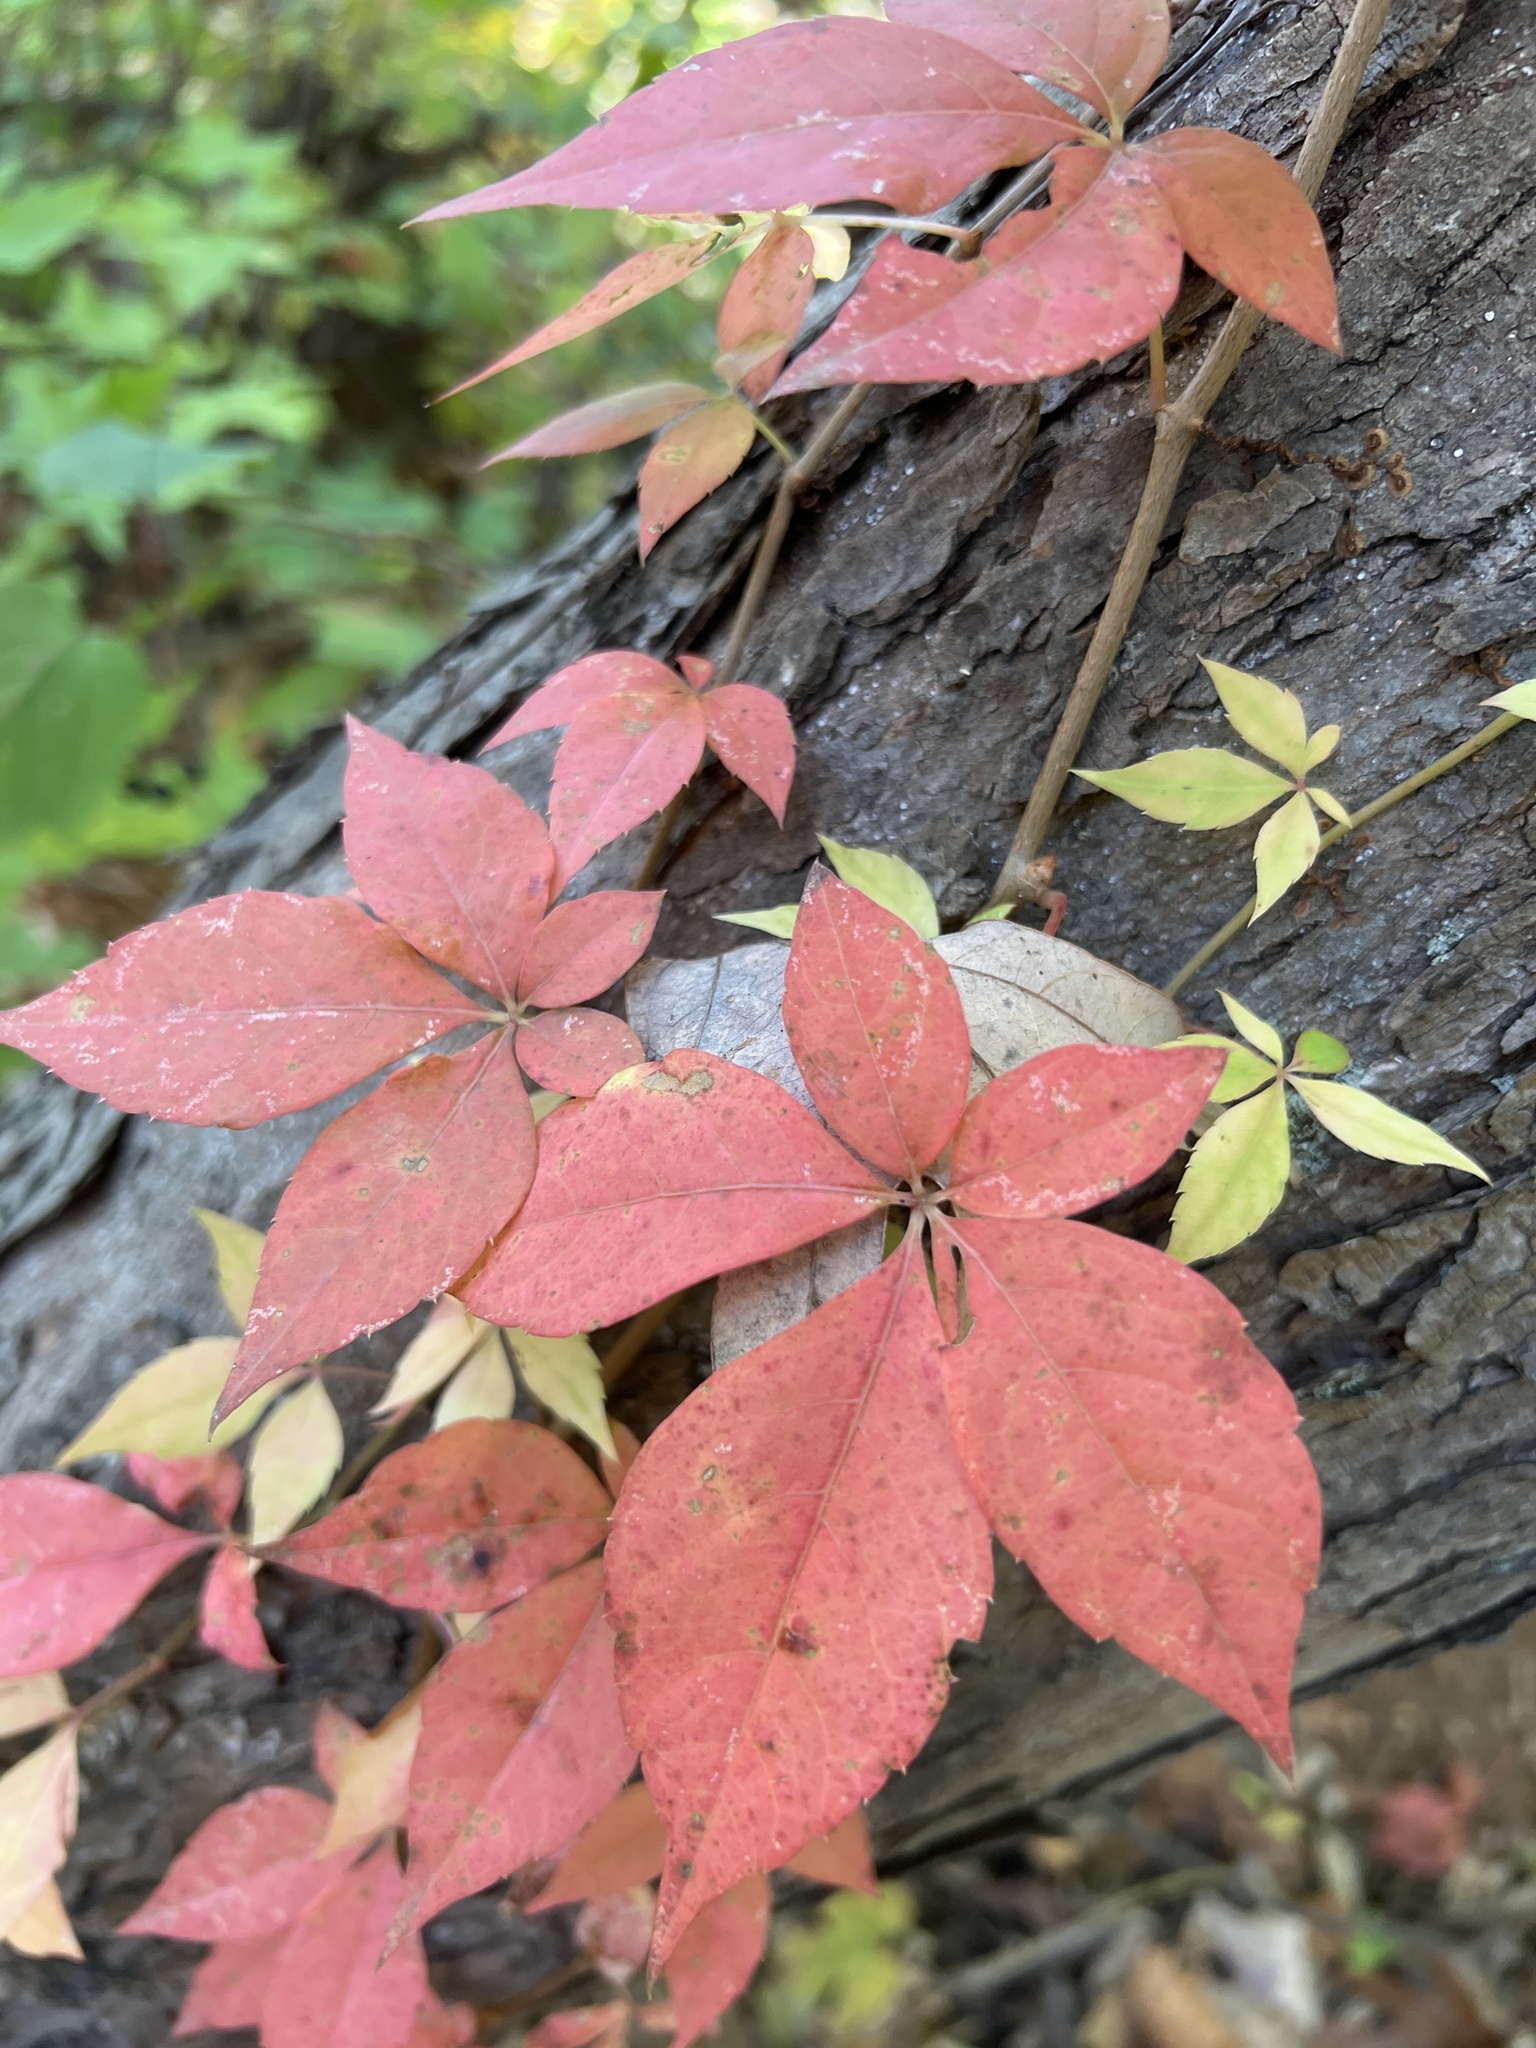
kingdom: Plantae
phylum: Tracheophyta
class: Magnoliopsida
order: Vitales
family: Vitaceae
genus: Parthenocissus
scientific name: Parthenocissus quinquefolia
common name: Virginia-creeper
